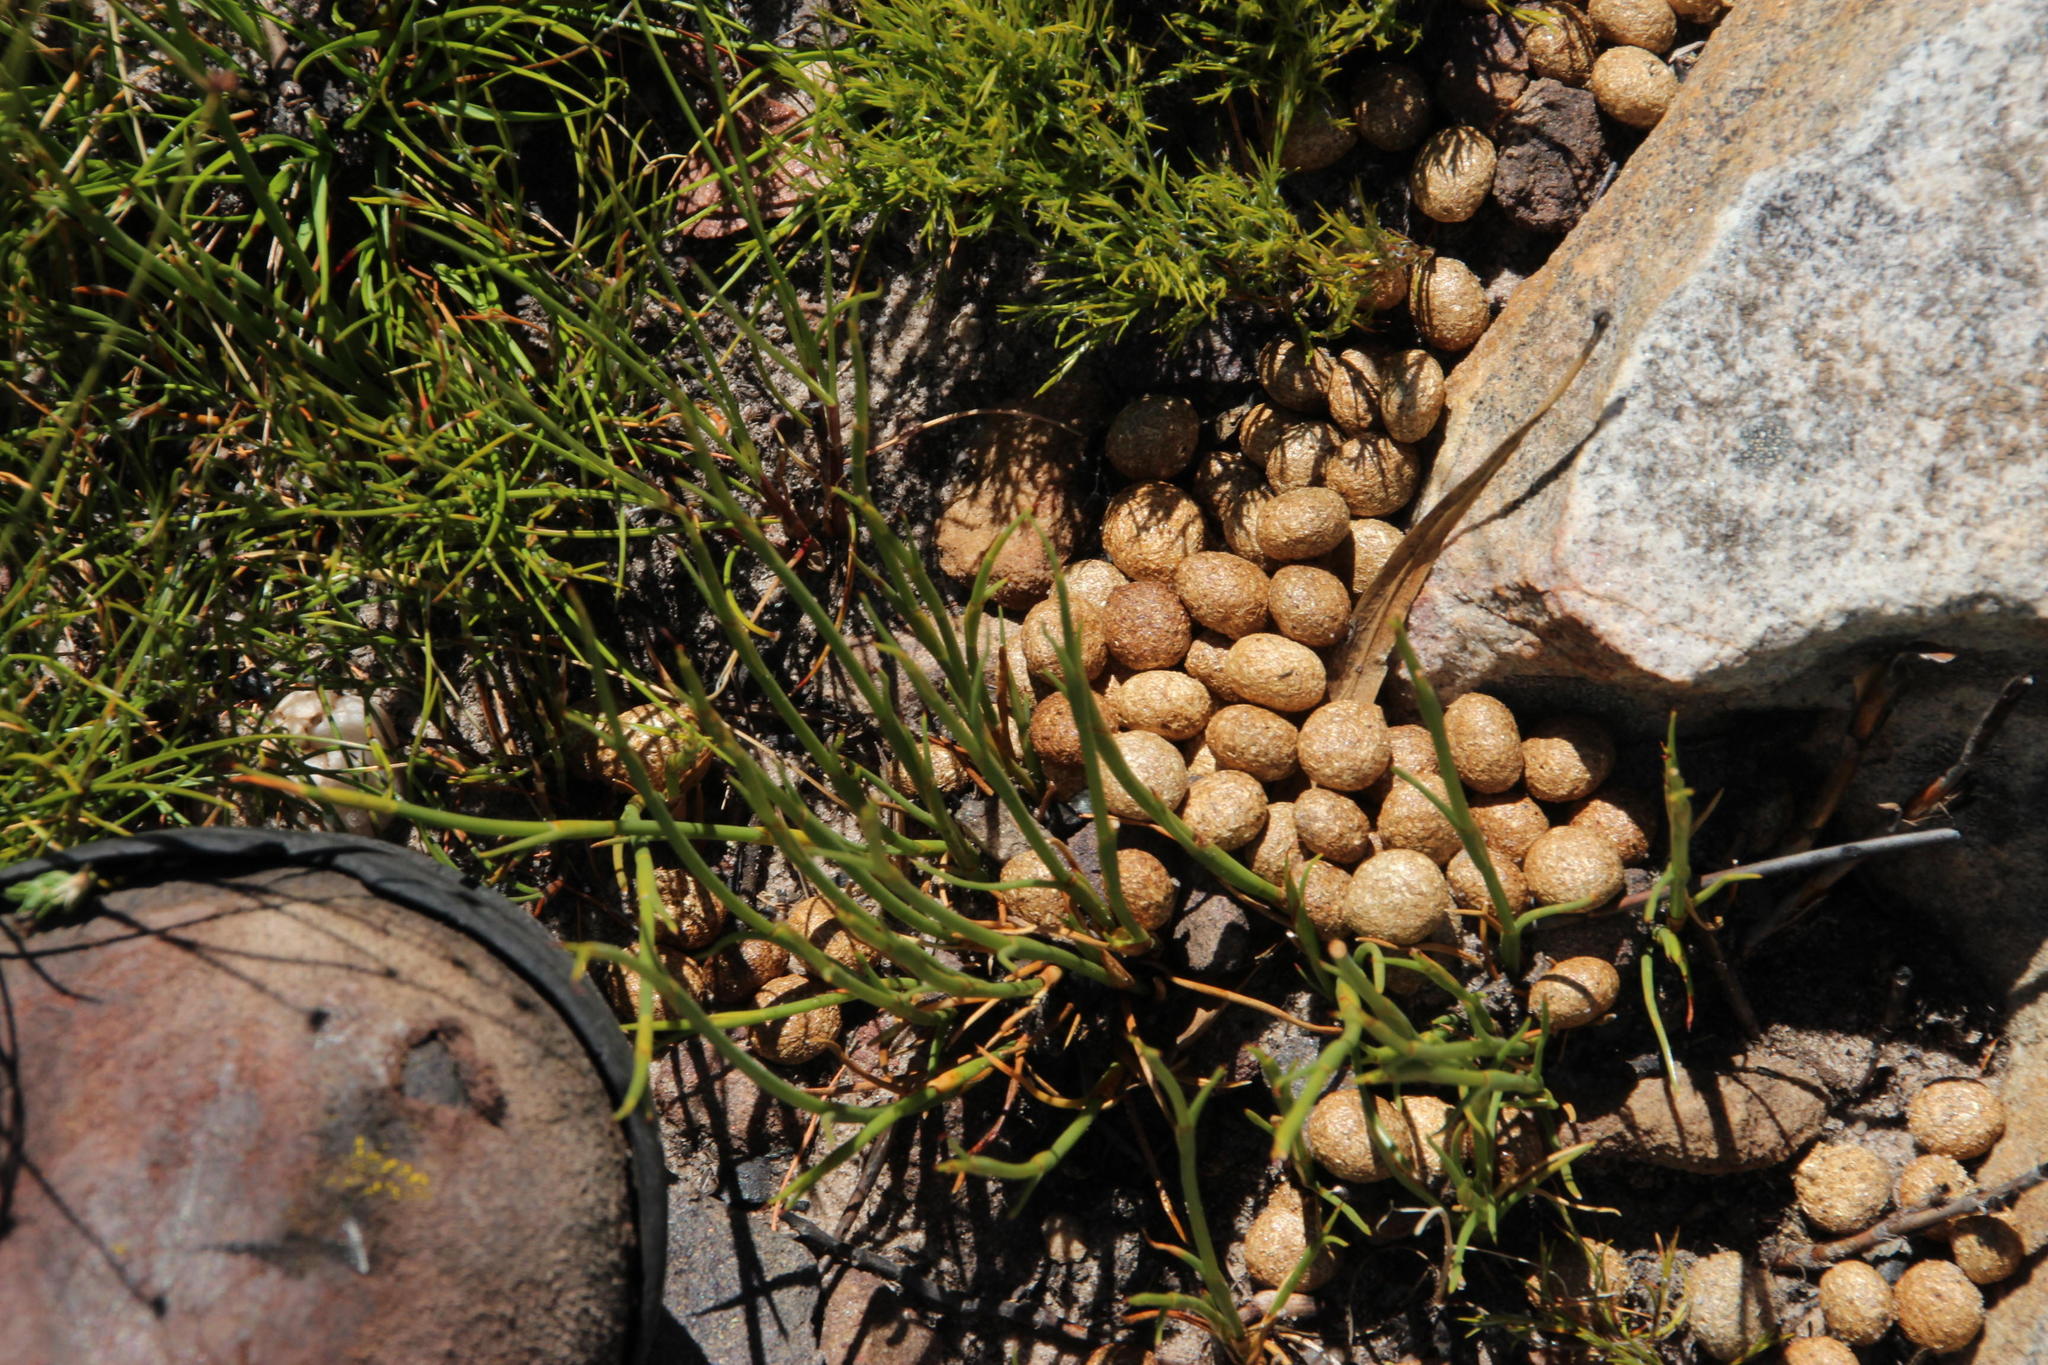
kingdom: Animalia
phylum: Chordata
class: Mammalia
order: Lagomorpha
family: Leporidae
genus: Pronolagus
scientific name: Pronolagus saundersiae
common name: Hewitt's red rock hare
